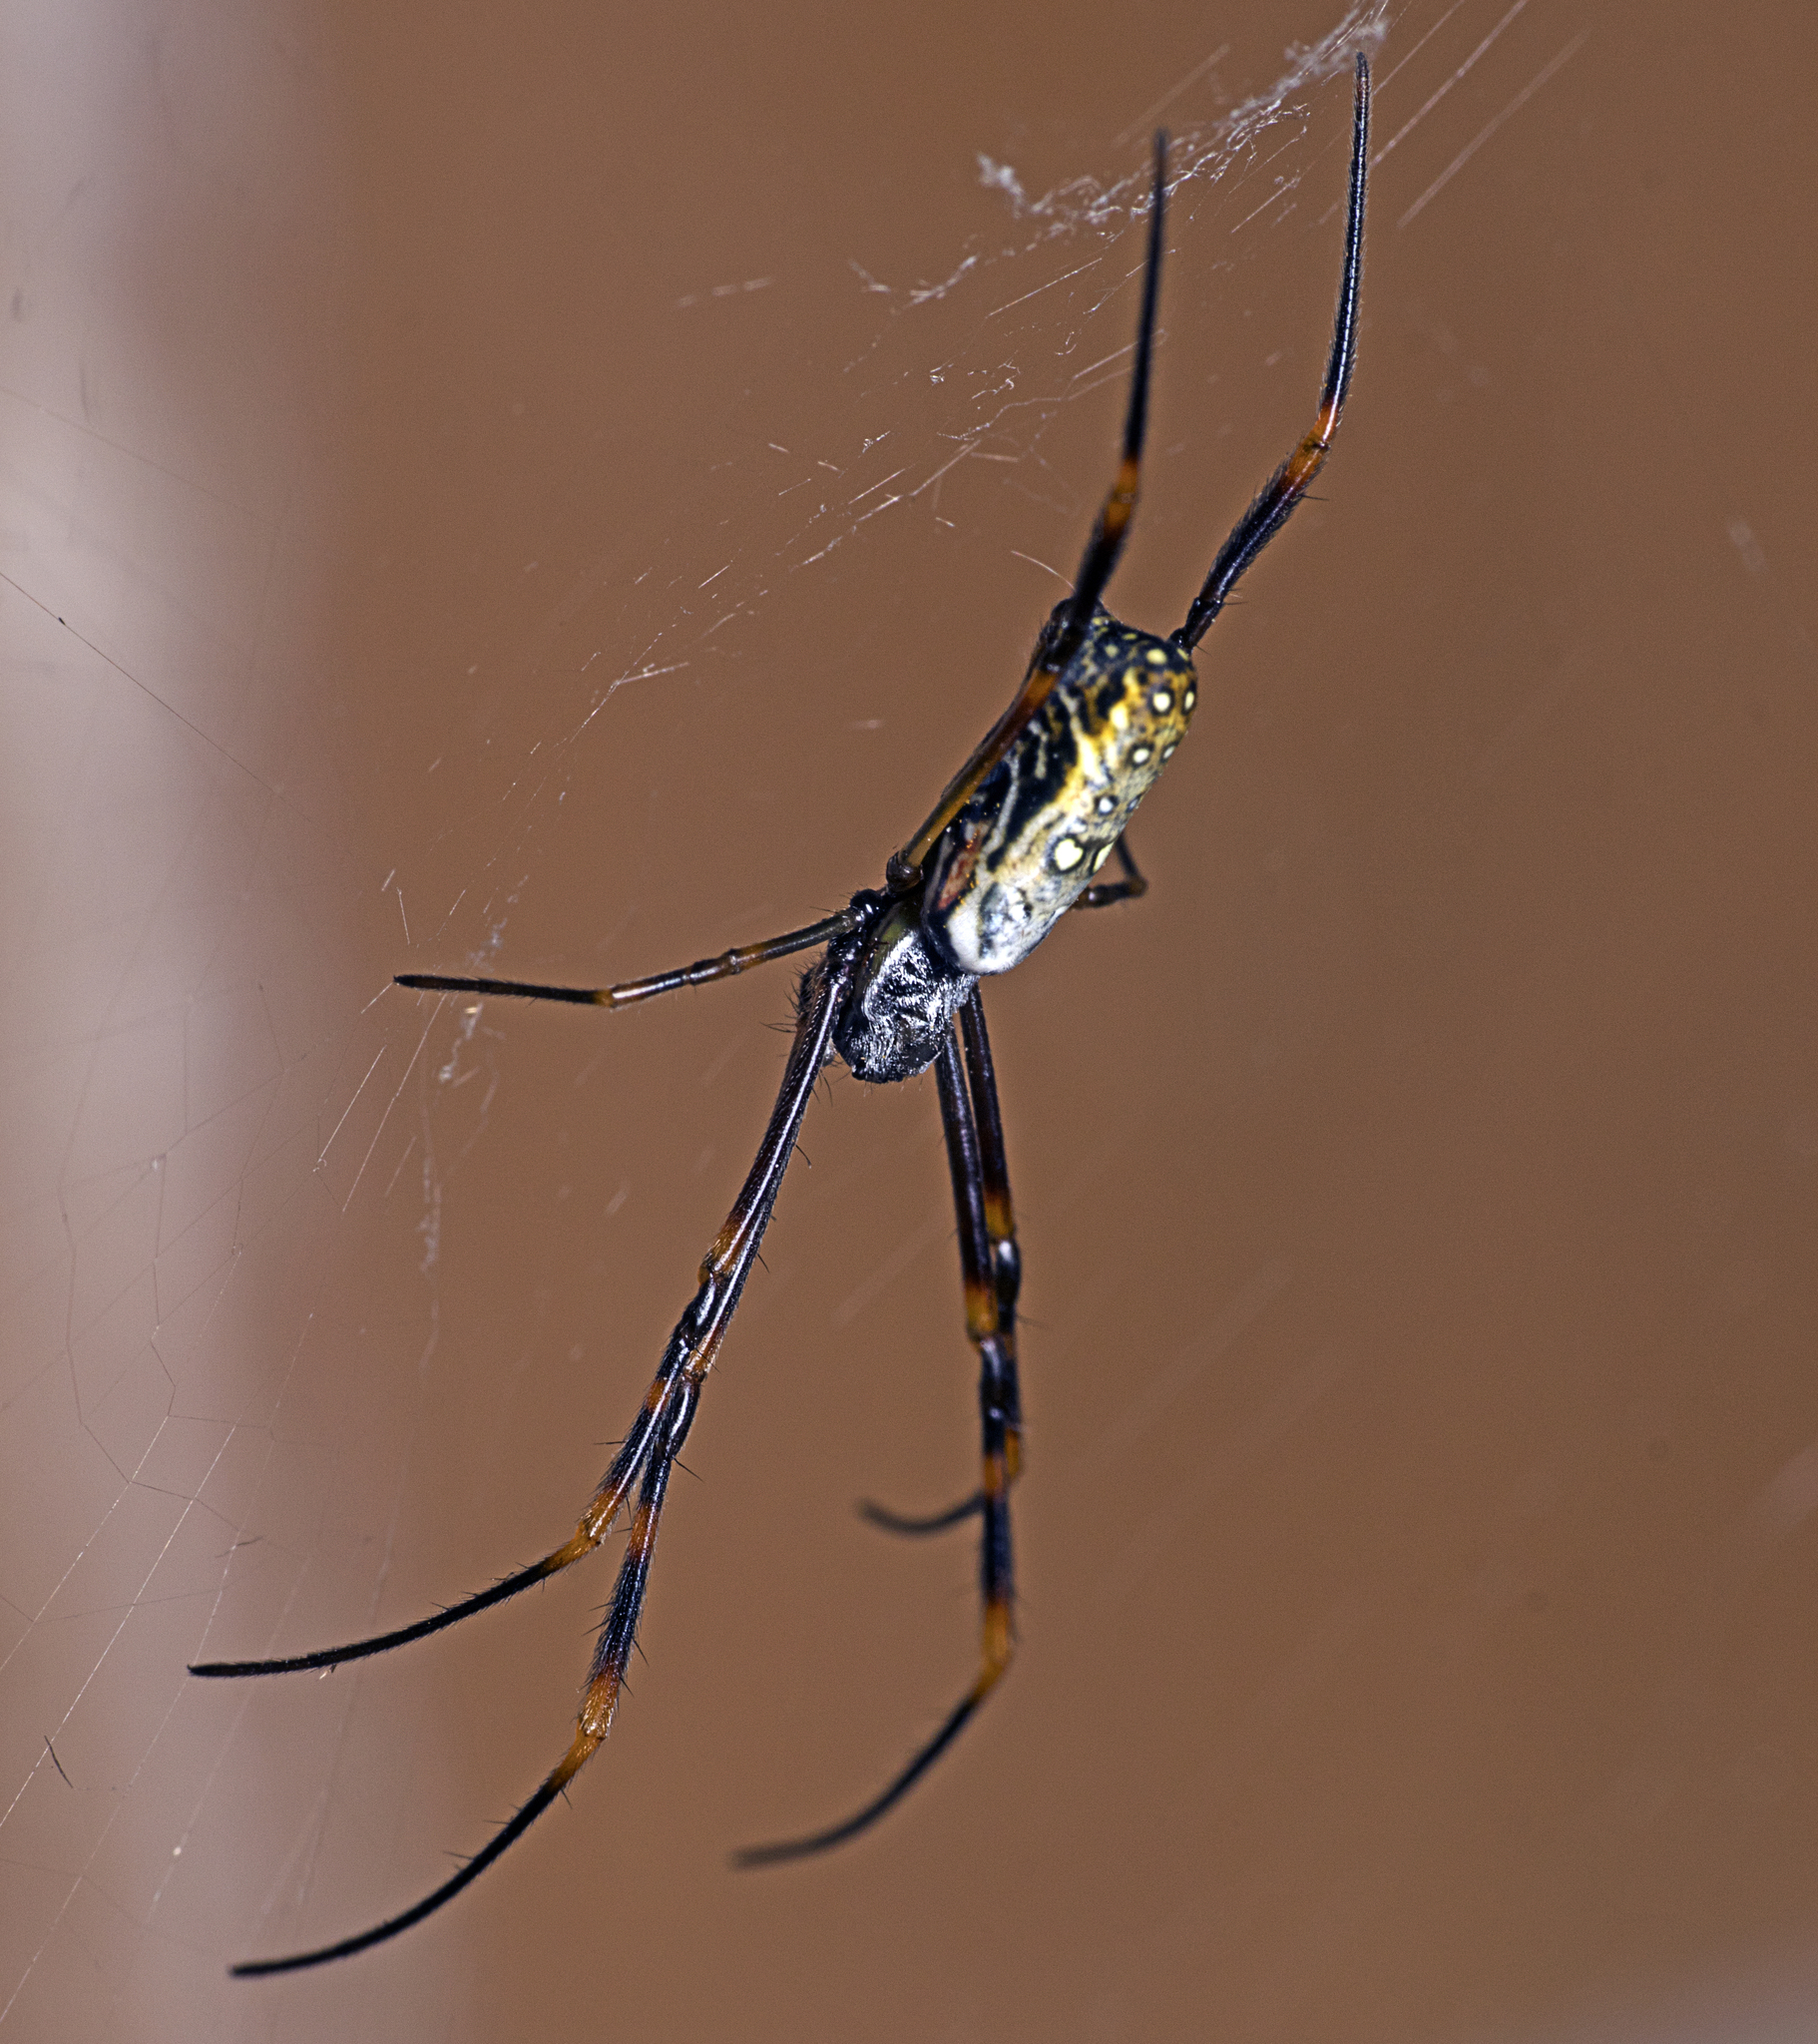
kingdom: Animalia
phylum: Arthropoda
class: Arachnida
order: Araneae
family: Araneidae
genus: Trichonephila
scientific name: Trichonephila plumipes
